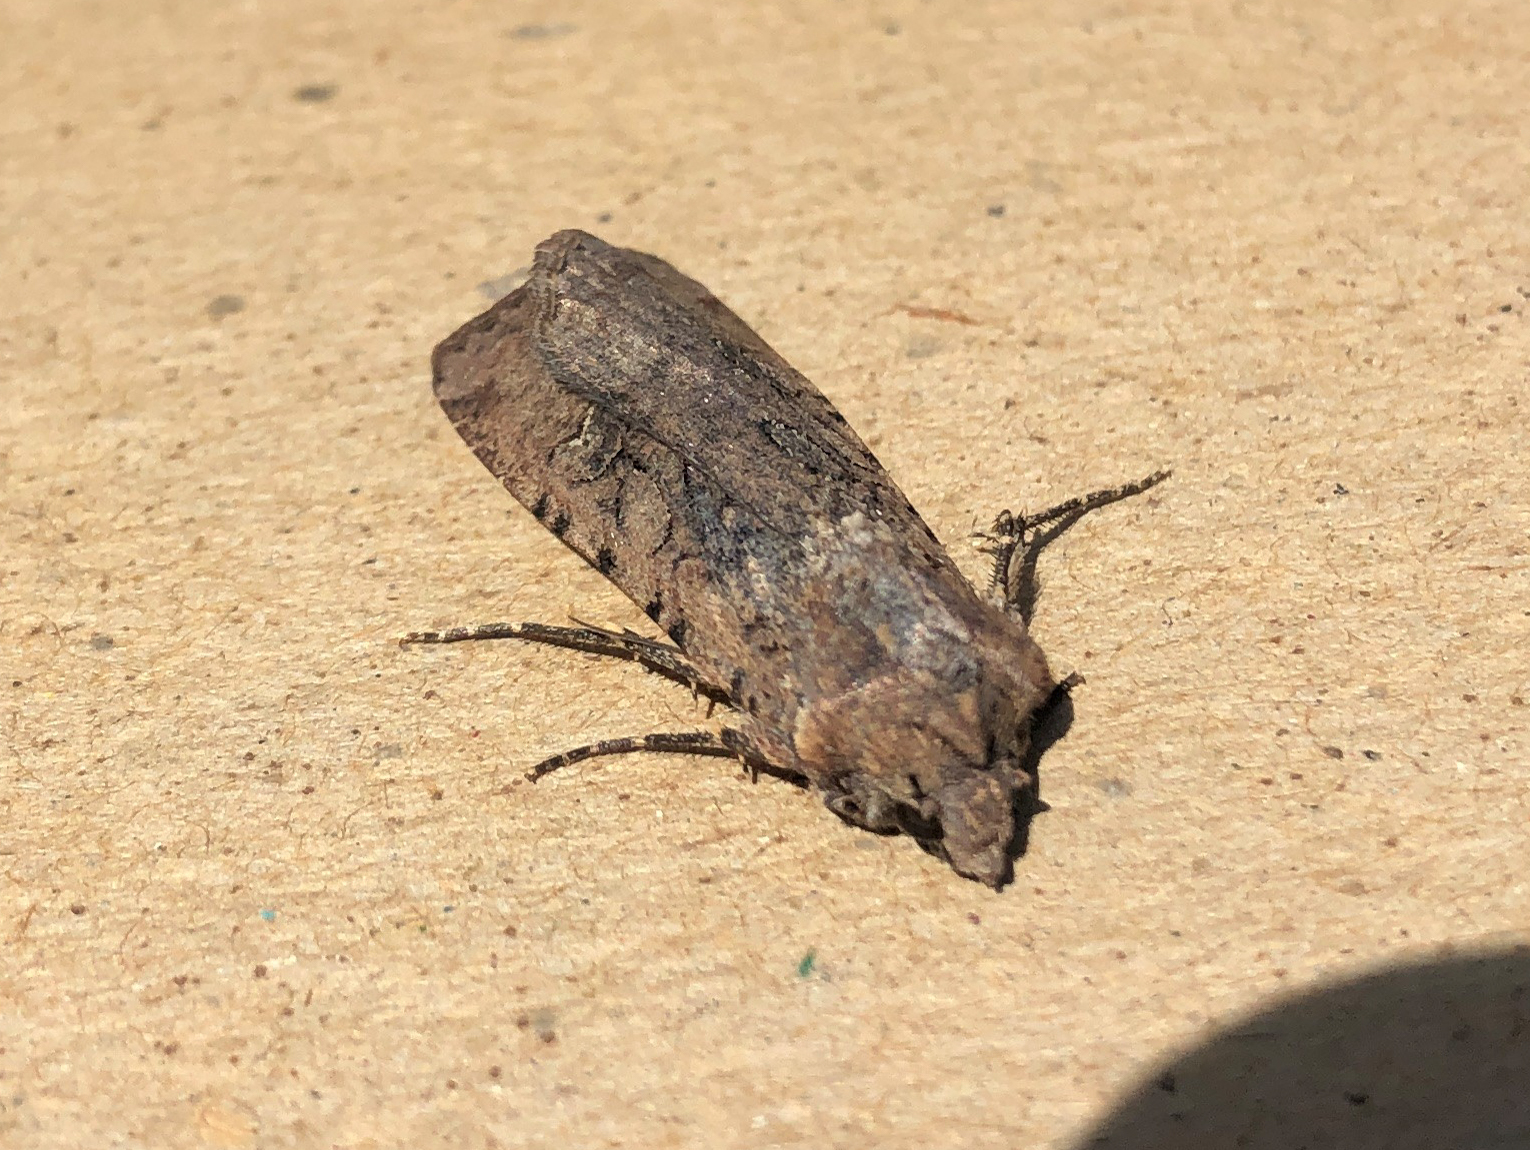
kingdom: Animalia
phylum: Arthropoda
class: Insecta
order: Lepidoptera
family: Noctuidae
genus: Peridroma
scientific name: Peridroma saucia
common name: Pearly underwing
